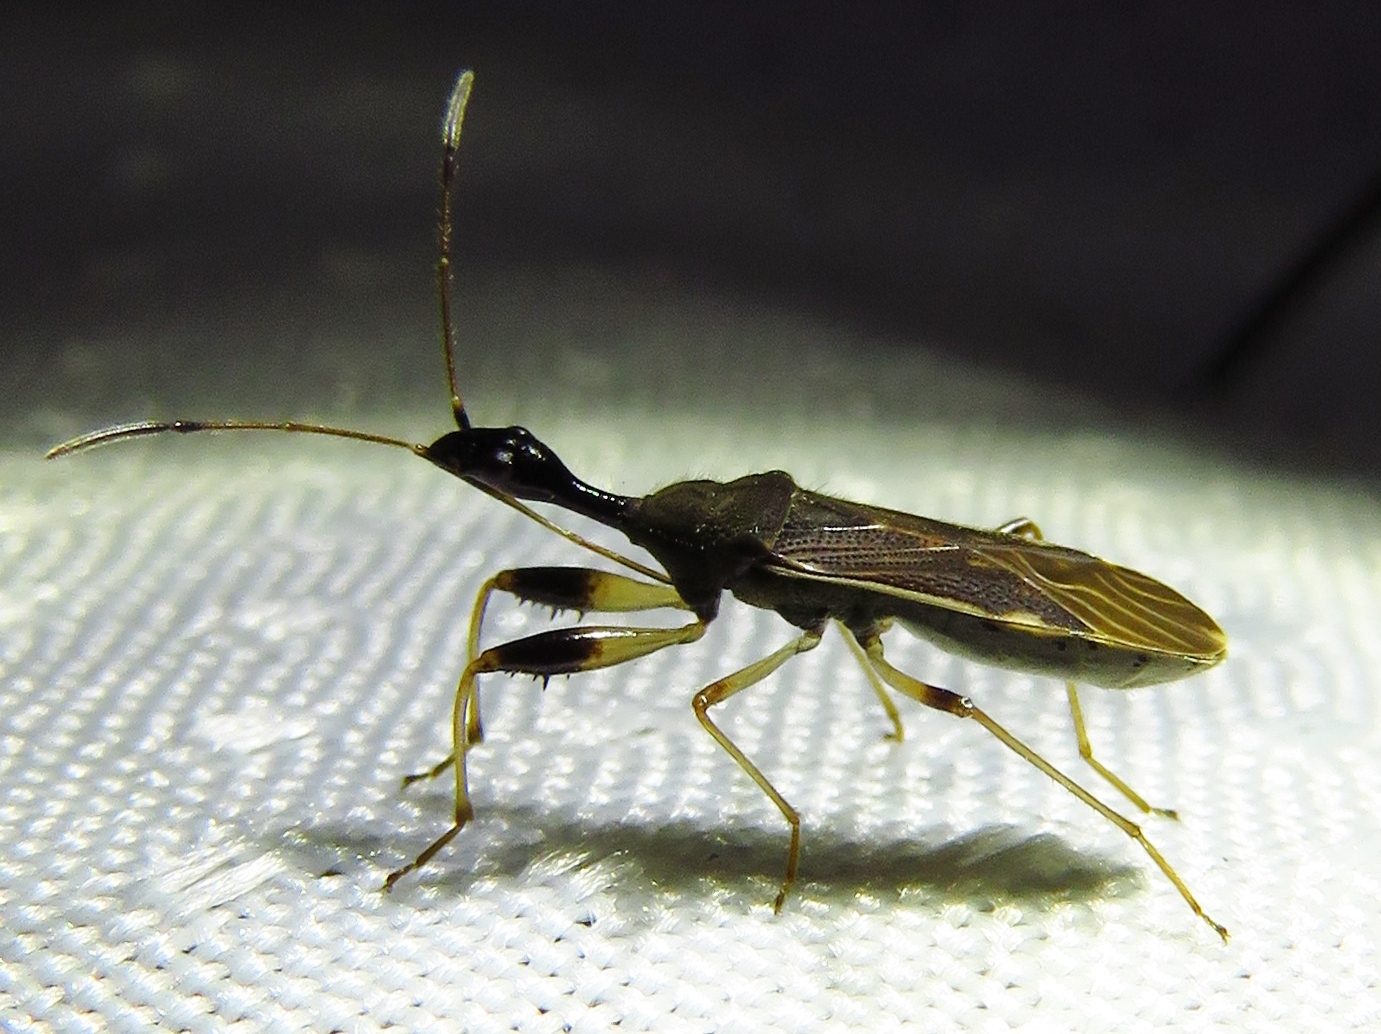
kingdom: Animalia
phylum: Arthropoda
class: Insecta
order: Hemiptera
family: Rhyparochromidae
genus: Myodocha
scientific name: Myodocha serripes
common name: Long-necked seed bug
